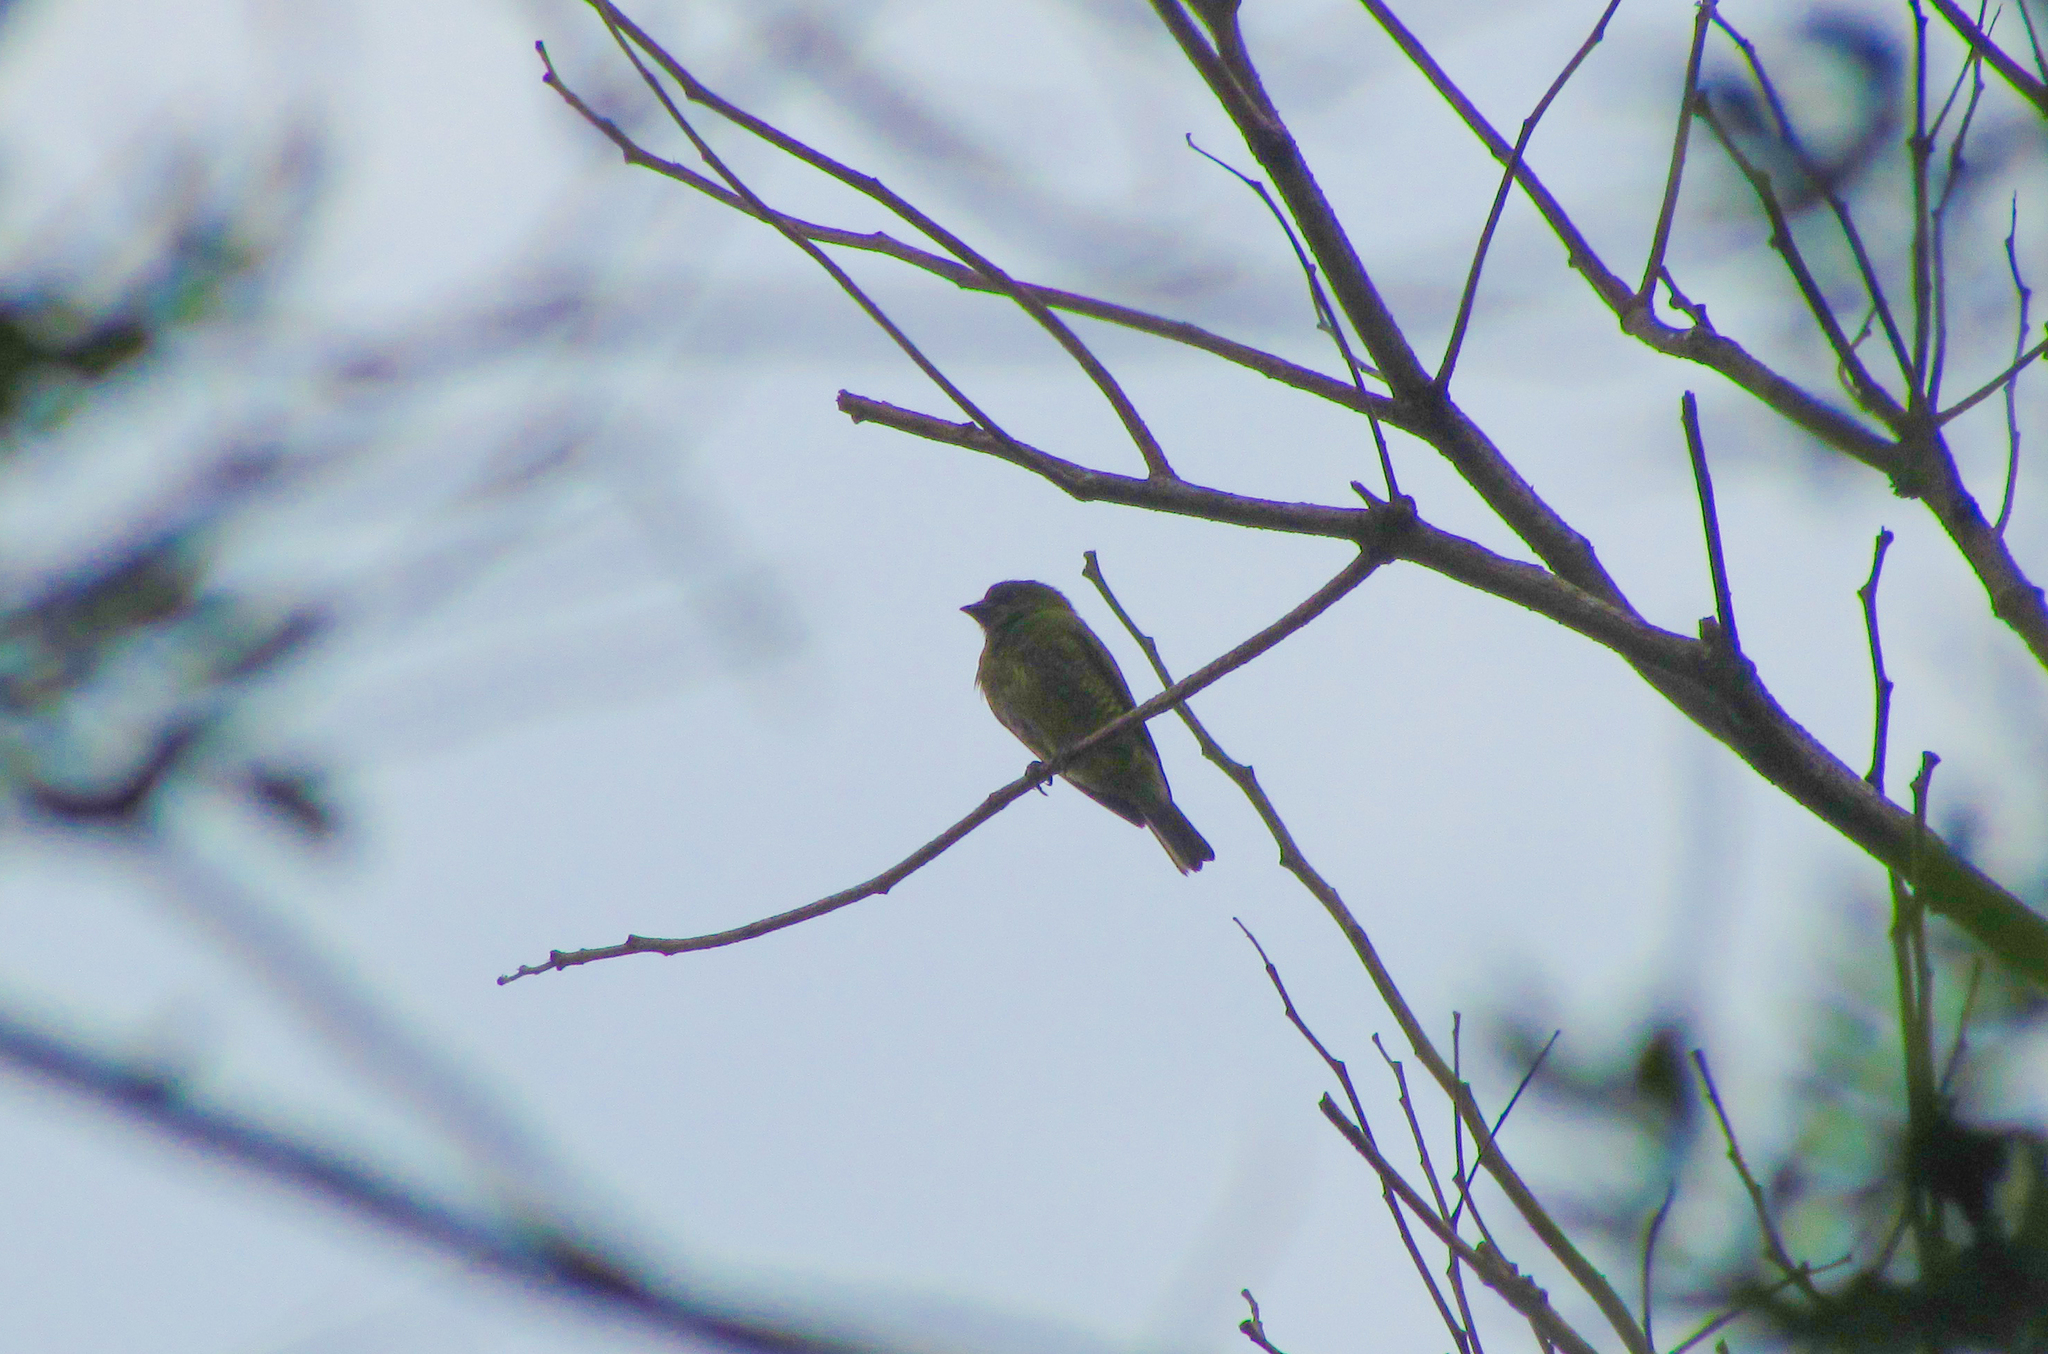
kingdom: Animalia
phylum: Chordata
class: Aves
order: Passeriformes
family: Thraupidae
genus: Tersina
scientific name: Tersina viridis
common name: Swallow tanager
